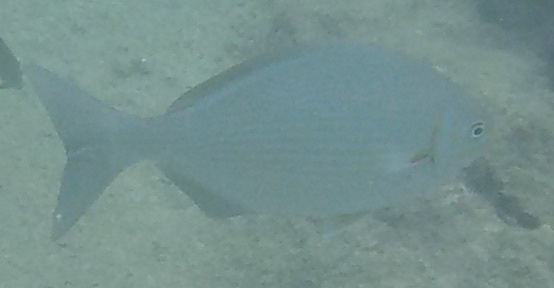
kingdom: Animalia
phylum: Chordata
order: Perciformes
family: Kyphosidae
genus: Kyphosus
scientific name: Kyphosus vaigiensis
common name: Brassy chub
